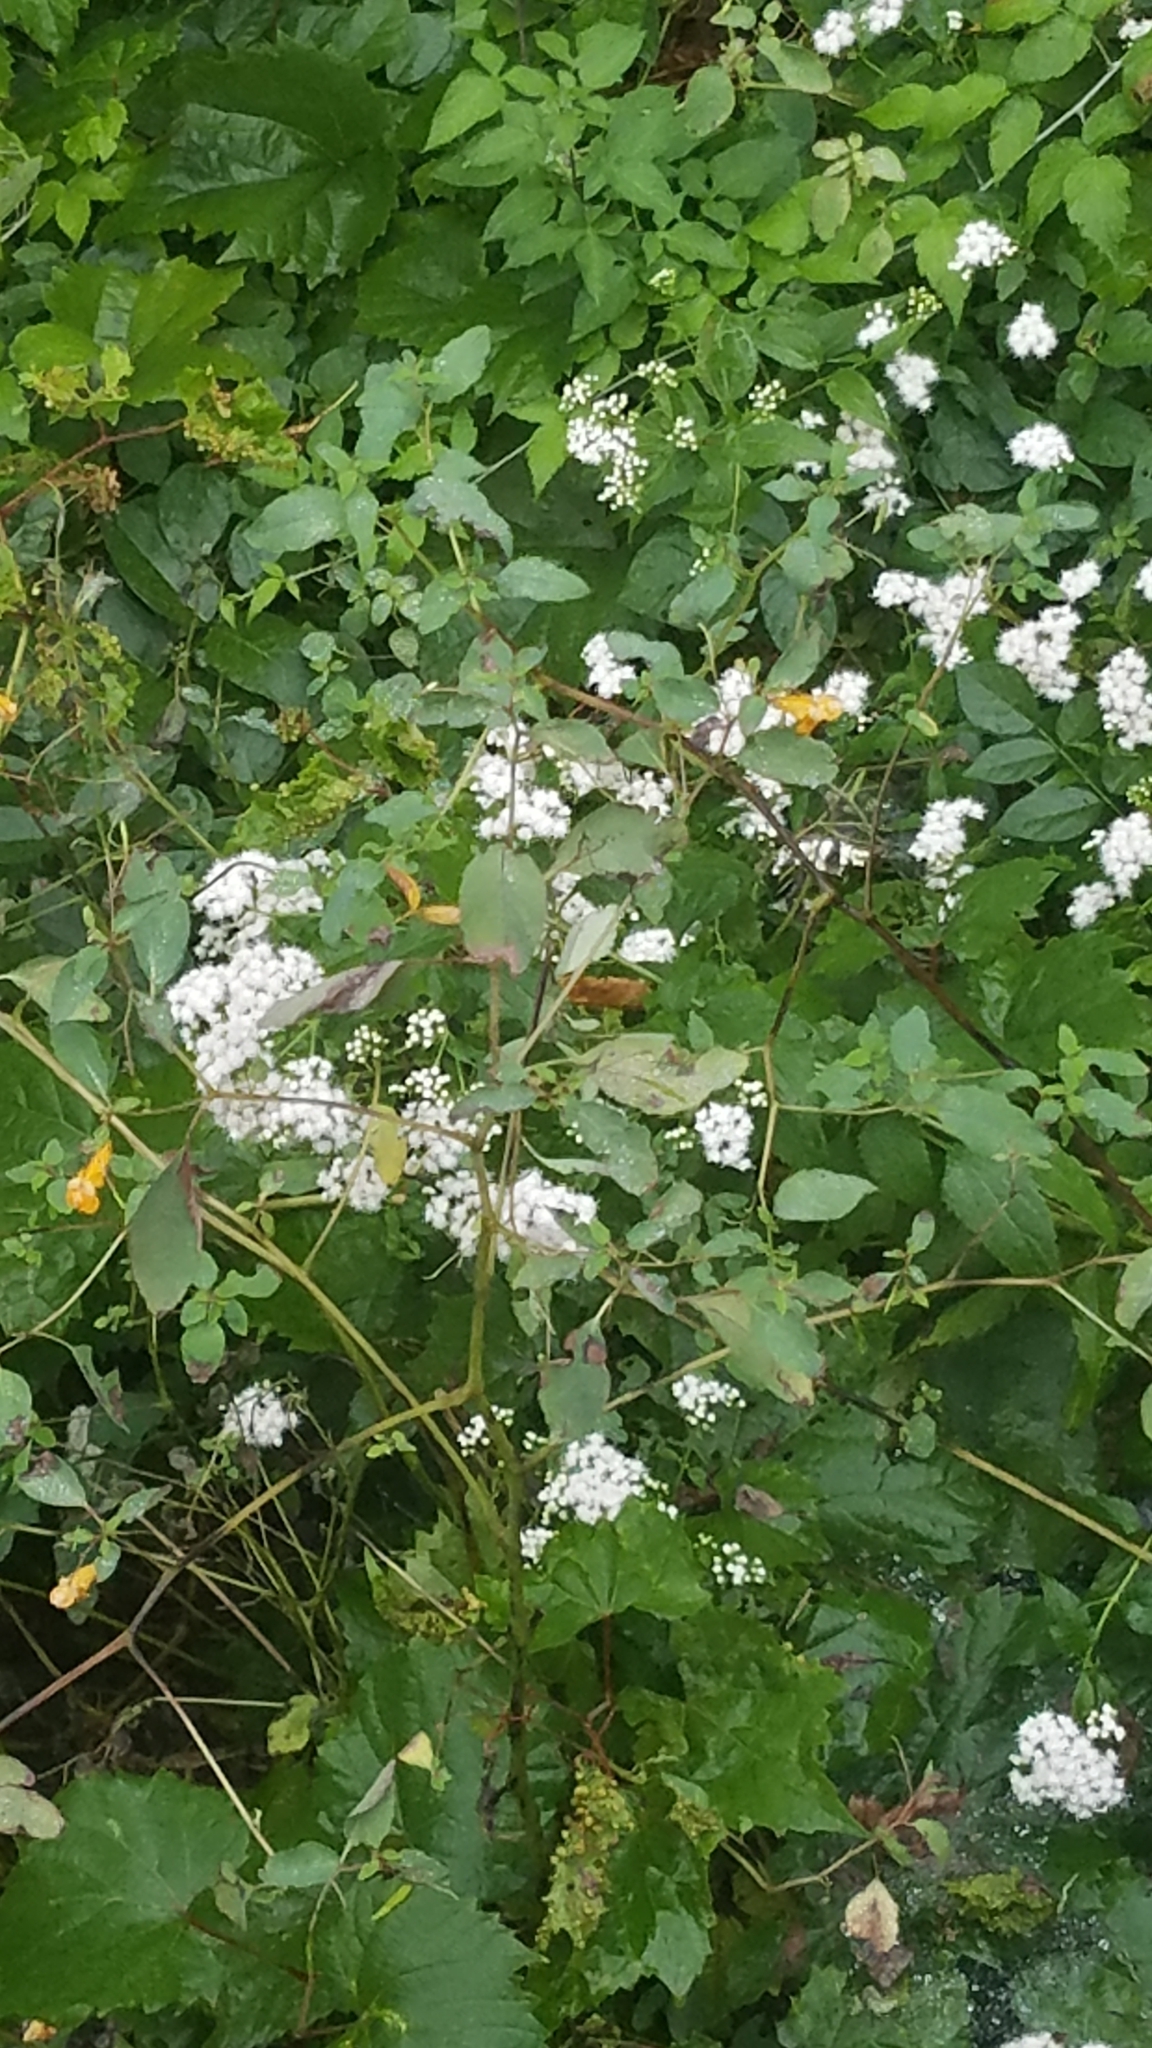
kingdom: Plantae
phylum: Tracheophyta
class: Magnoliopsida
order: Asterales
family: Asteraceae
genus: Ageratina
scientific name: Ageratina altissima
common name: White snakeroot
